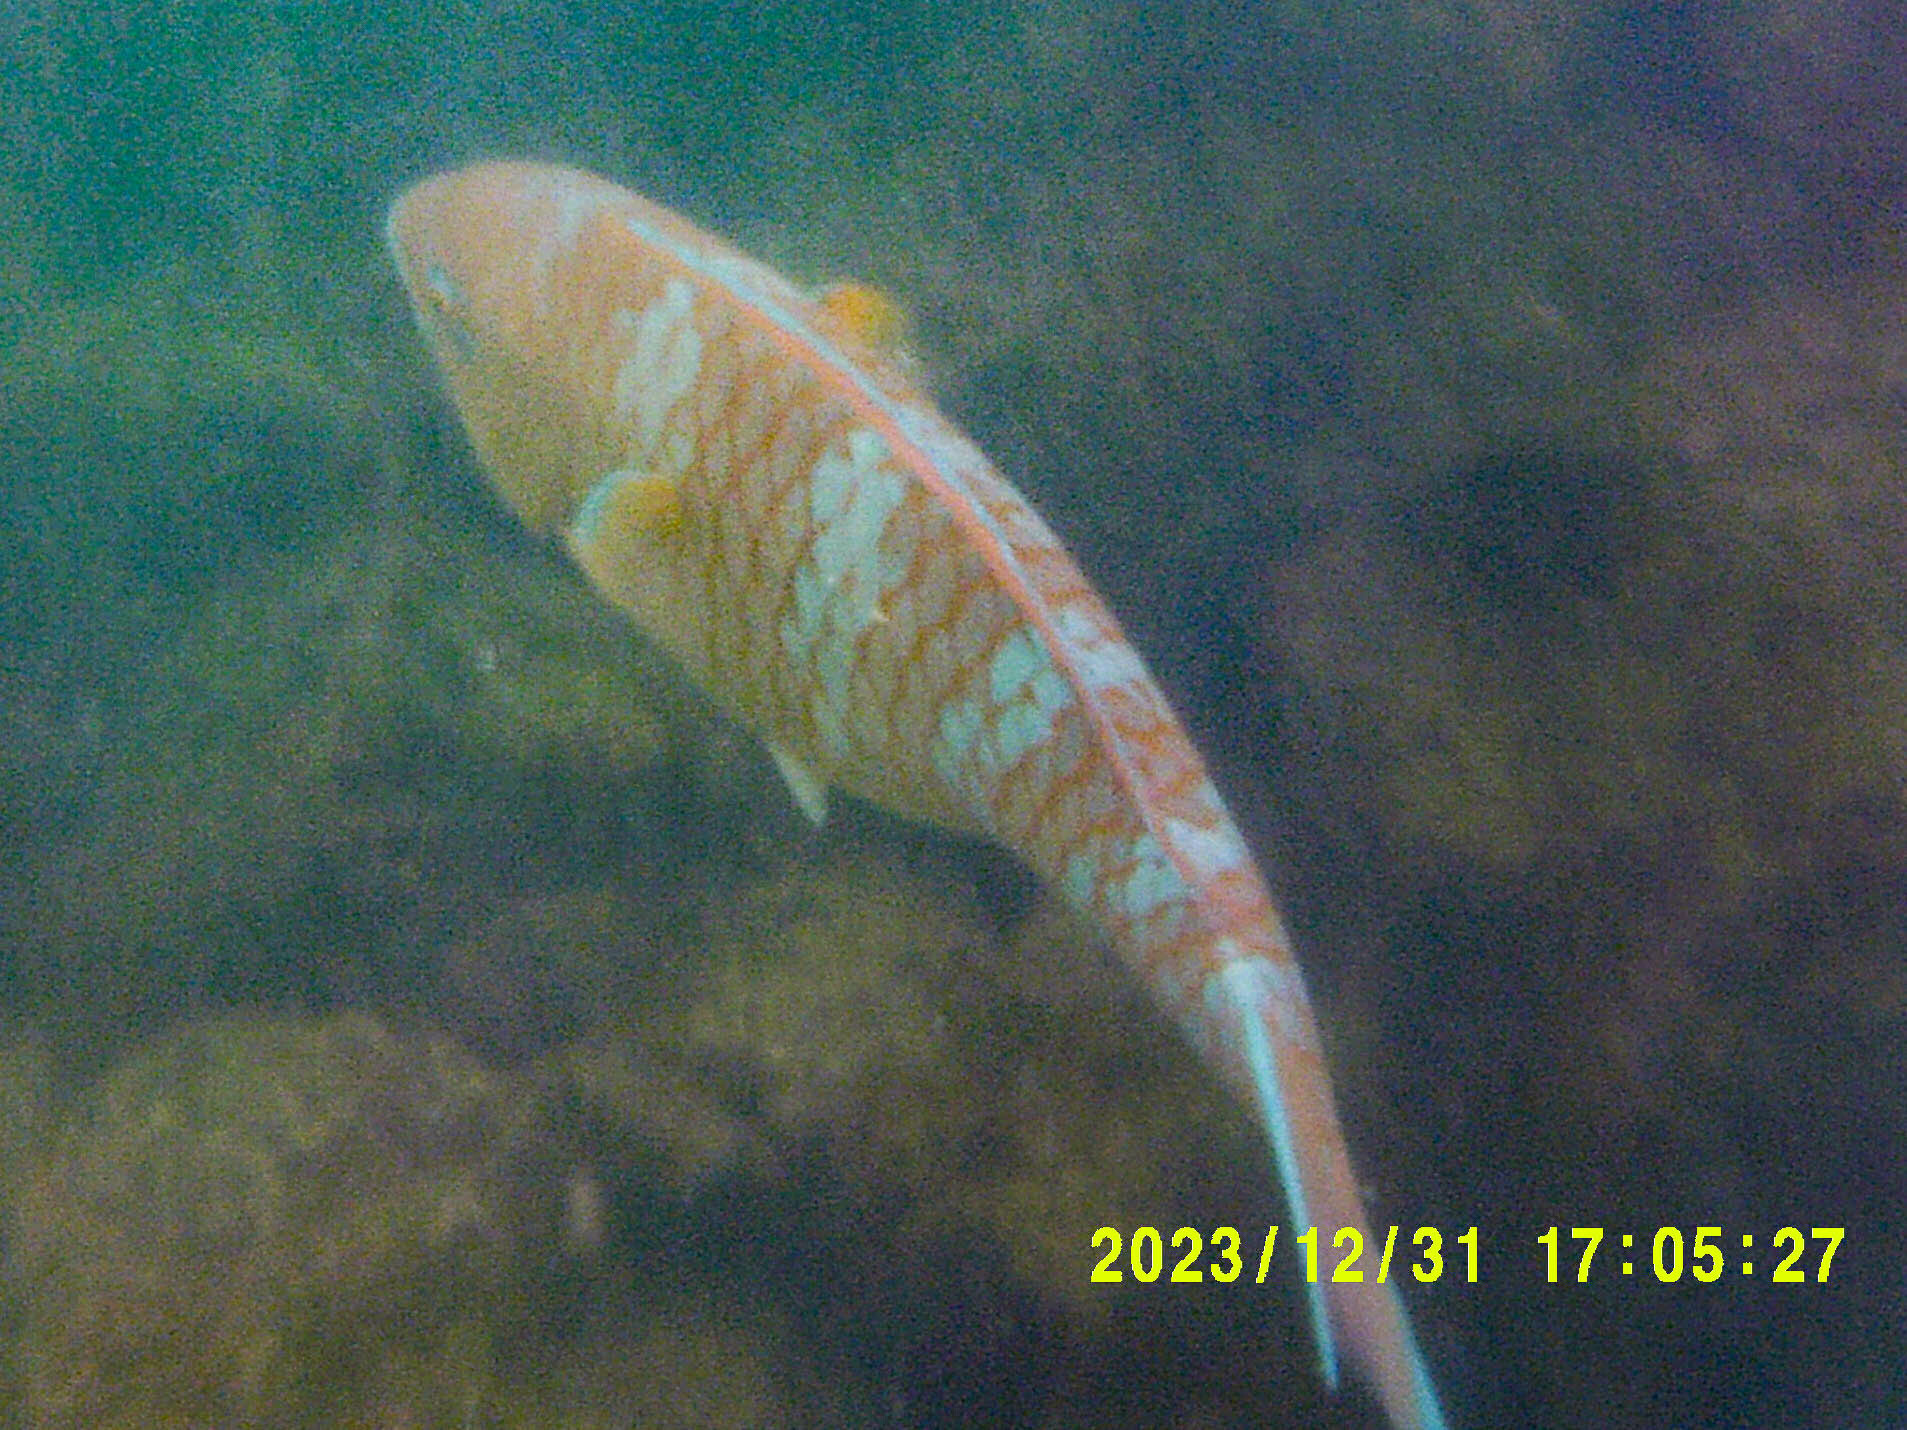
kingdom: Animalia
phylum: Chordata
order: Perciformes
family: Scaridae
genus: Scarus
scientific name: Scarus ghobban
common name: Blue-barred parrotfish
